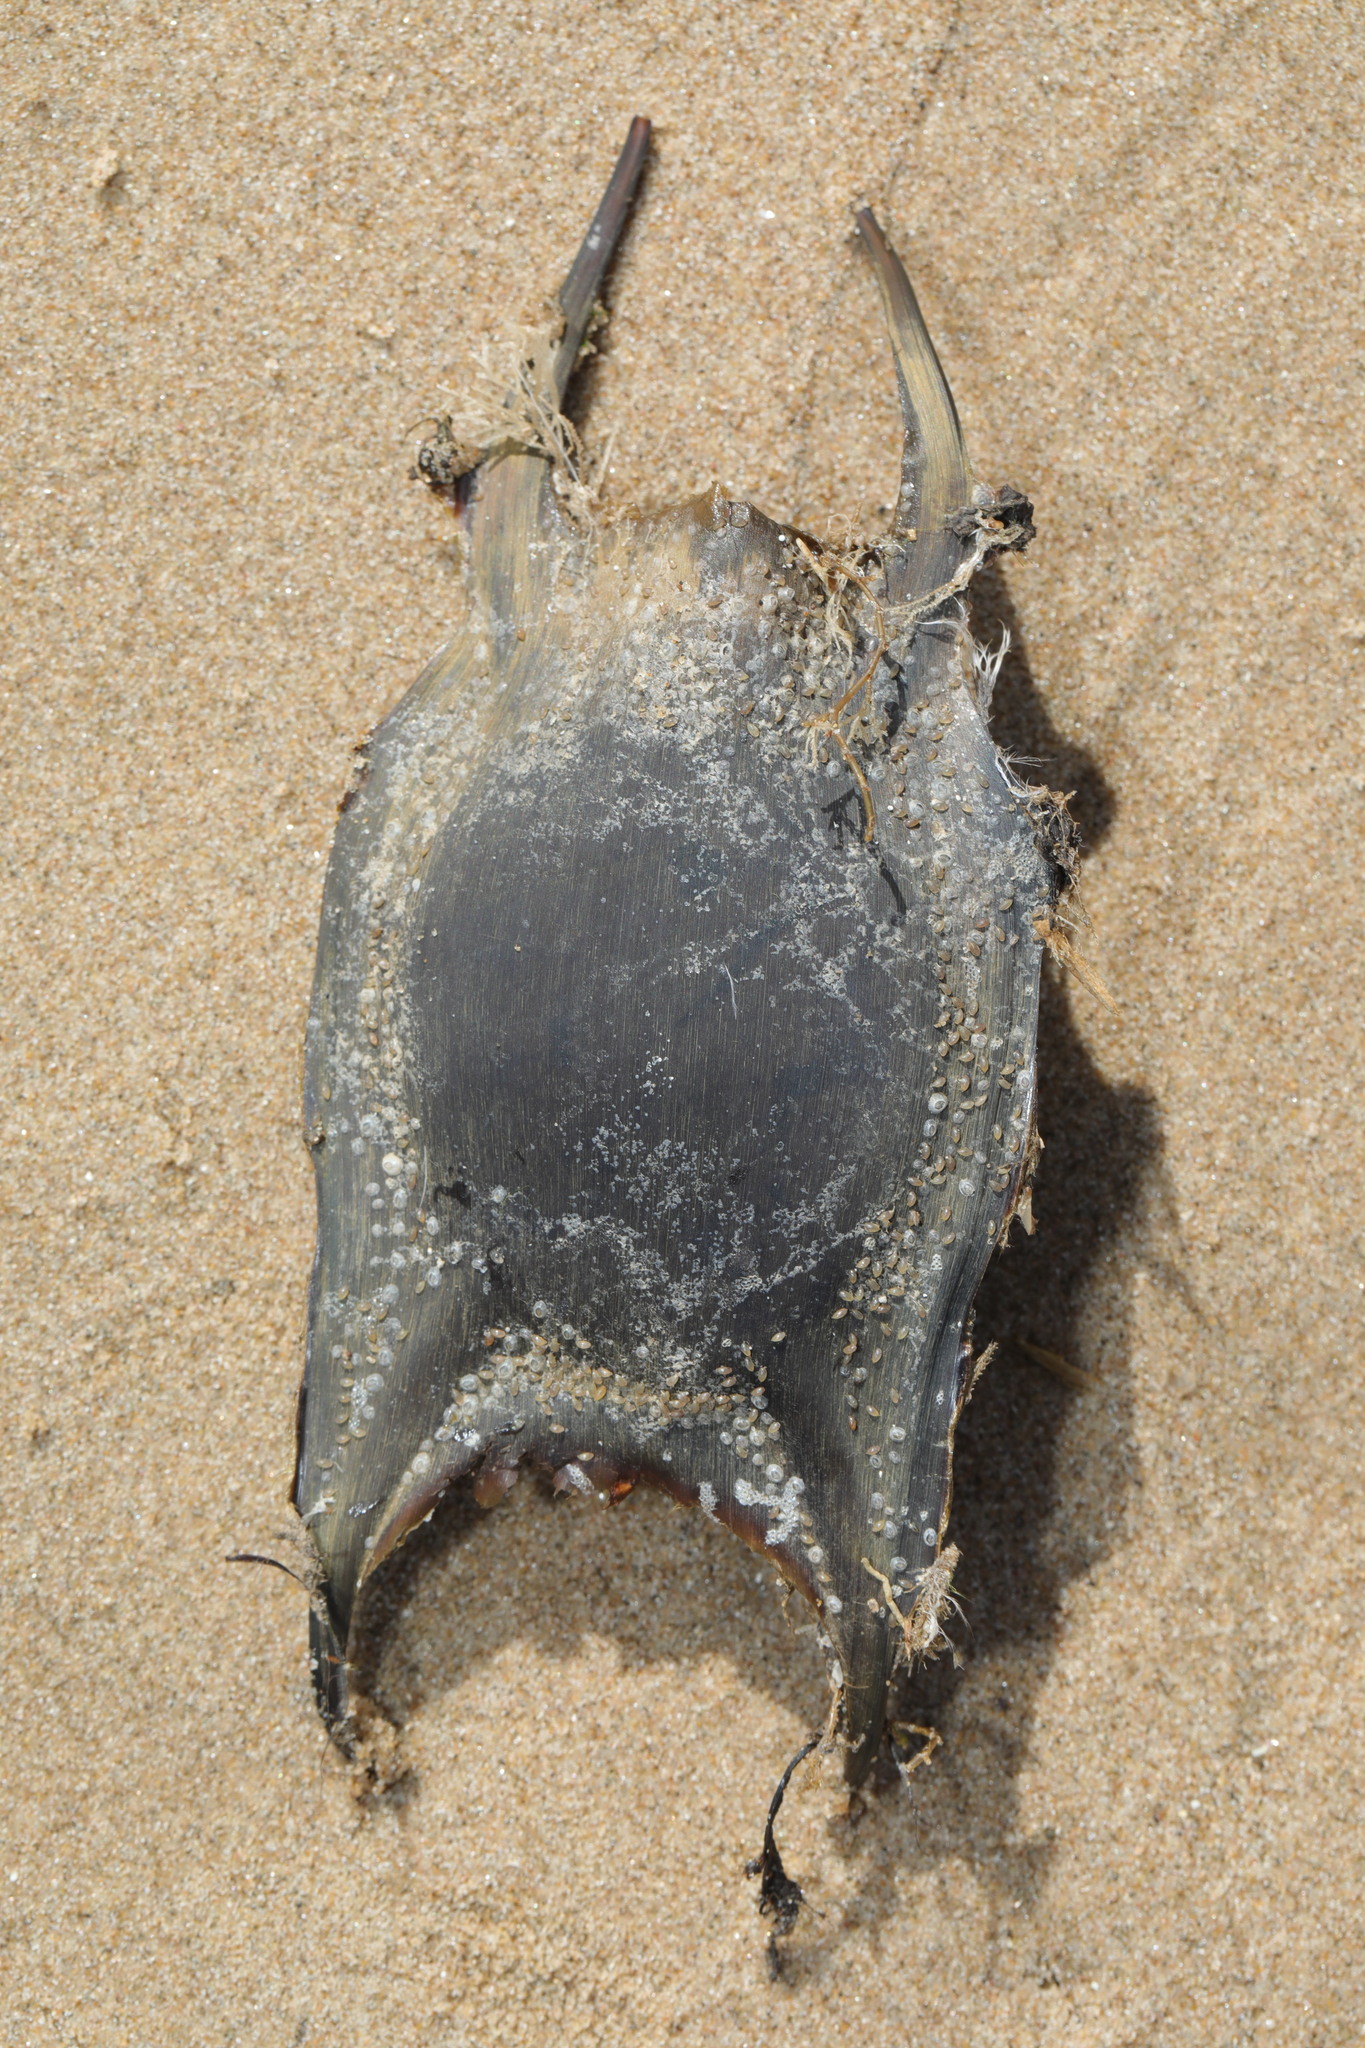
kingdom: Animalia
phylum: Chordata
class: Elasmobranchii
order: Rajiformes
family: Rajidae
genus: Raja
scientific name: Raja clavata
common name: Thornback ray
